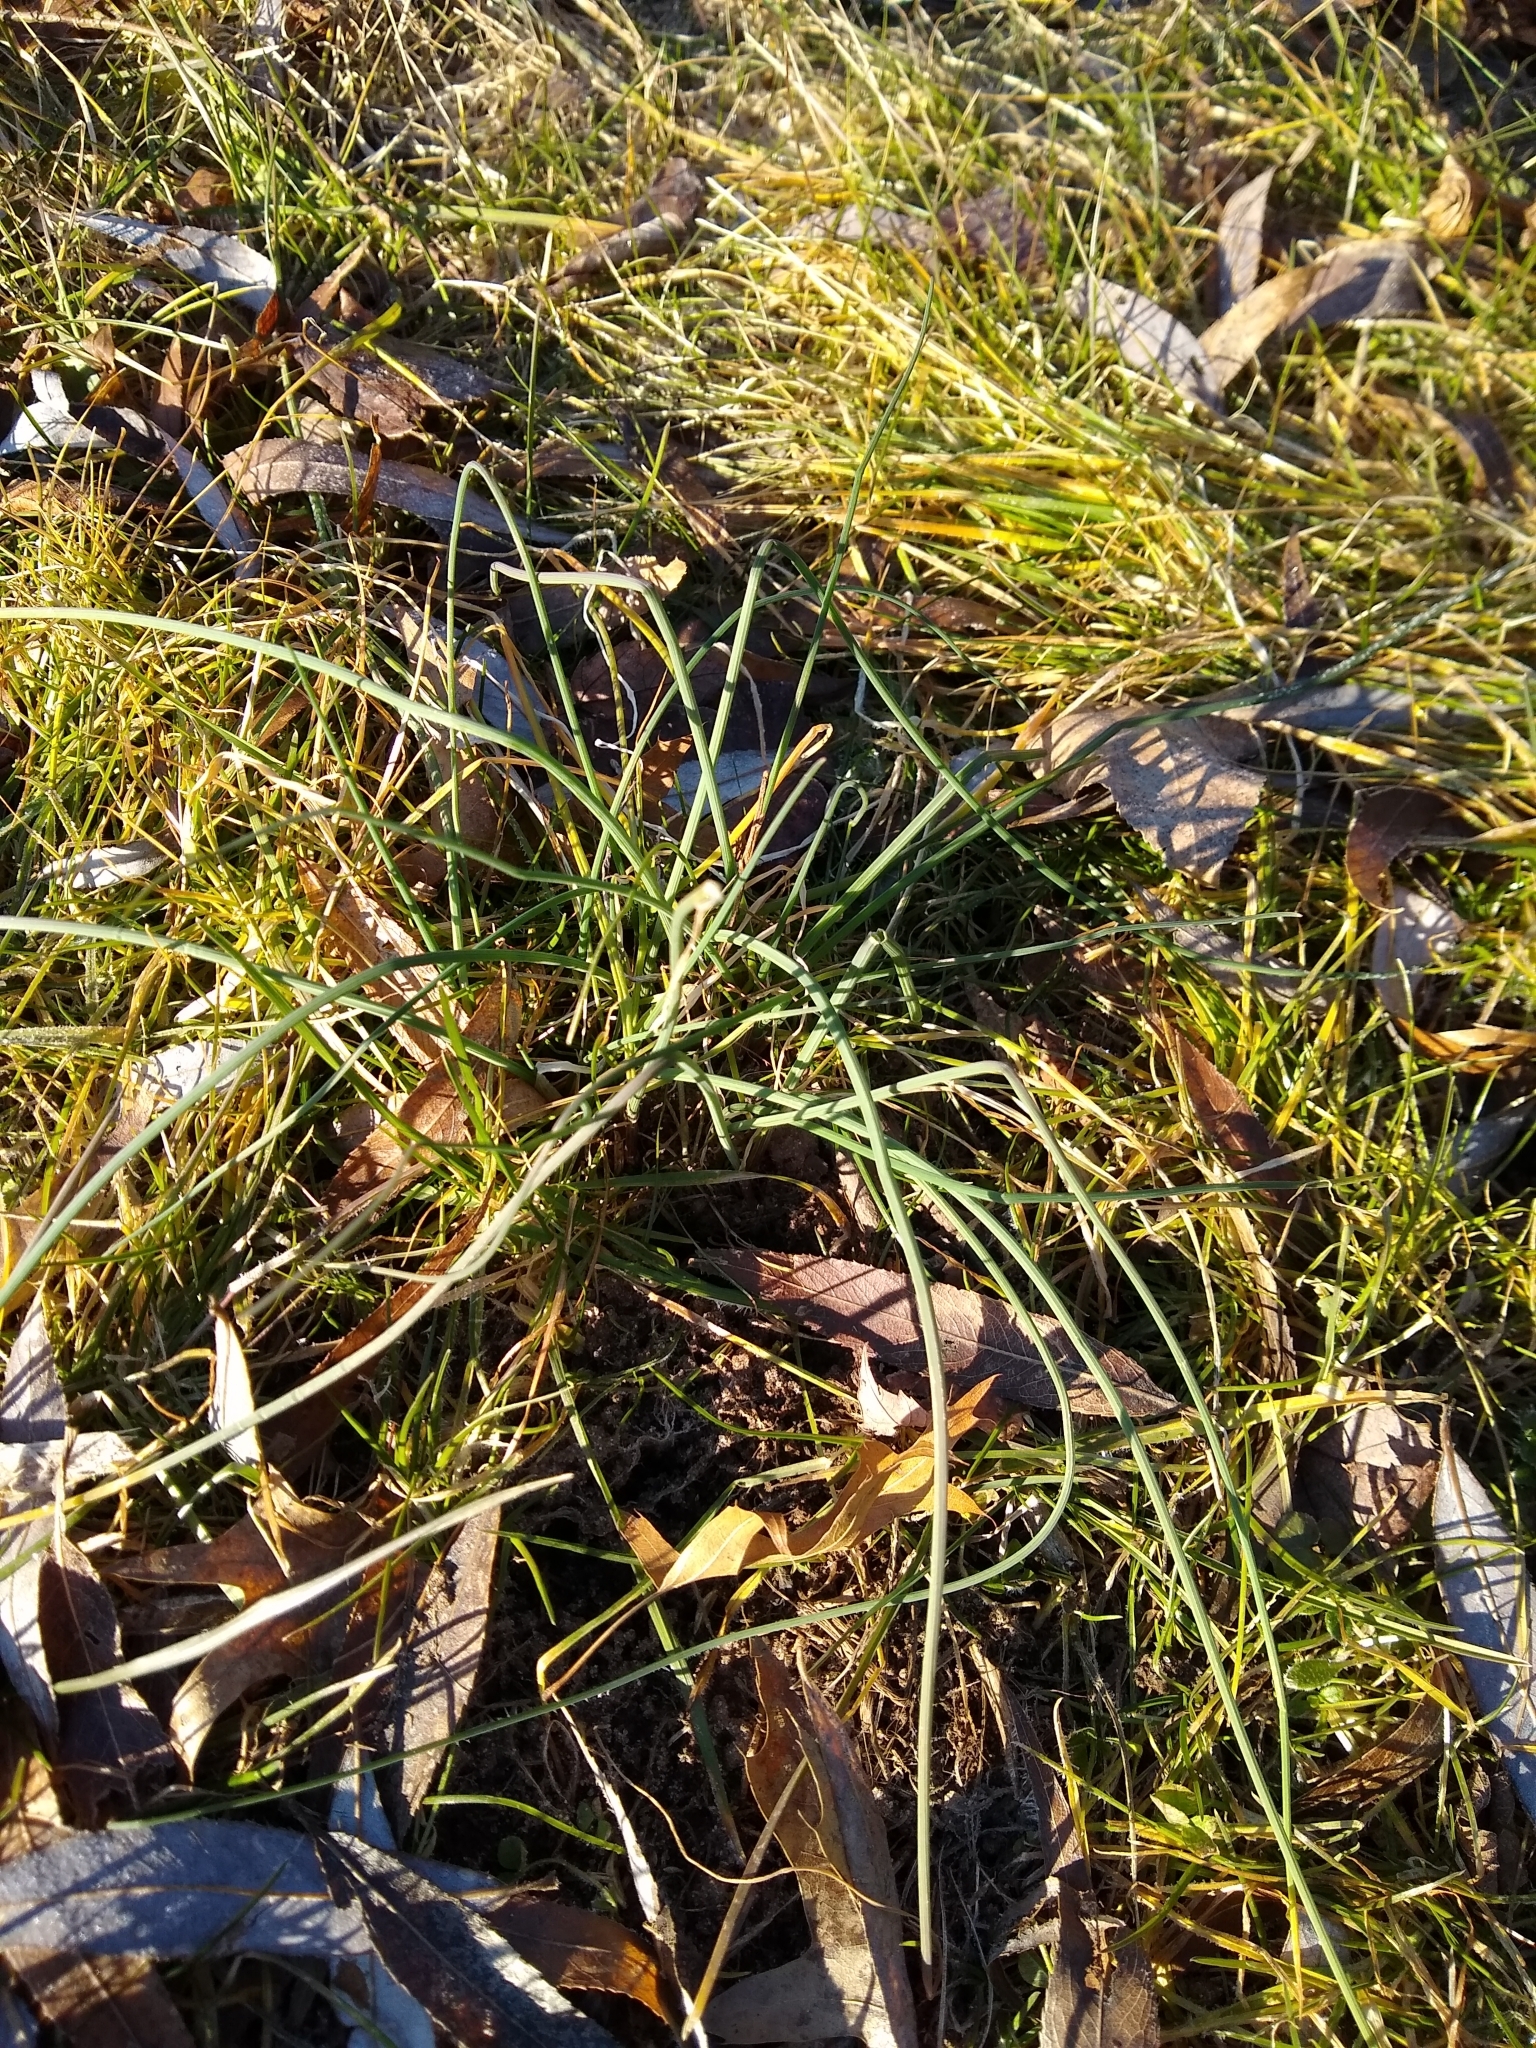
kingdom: Plantae
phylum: Tracheophyta
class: Liliopsida
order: Asparagales
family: Amaryllidaceae
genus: Allium
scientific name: Allium vineale
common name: Crow garlic
